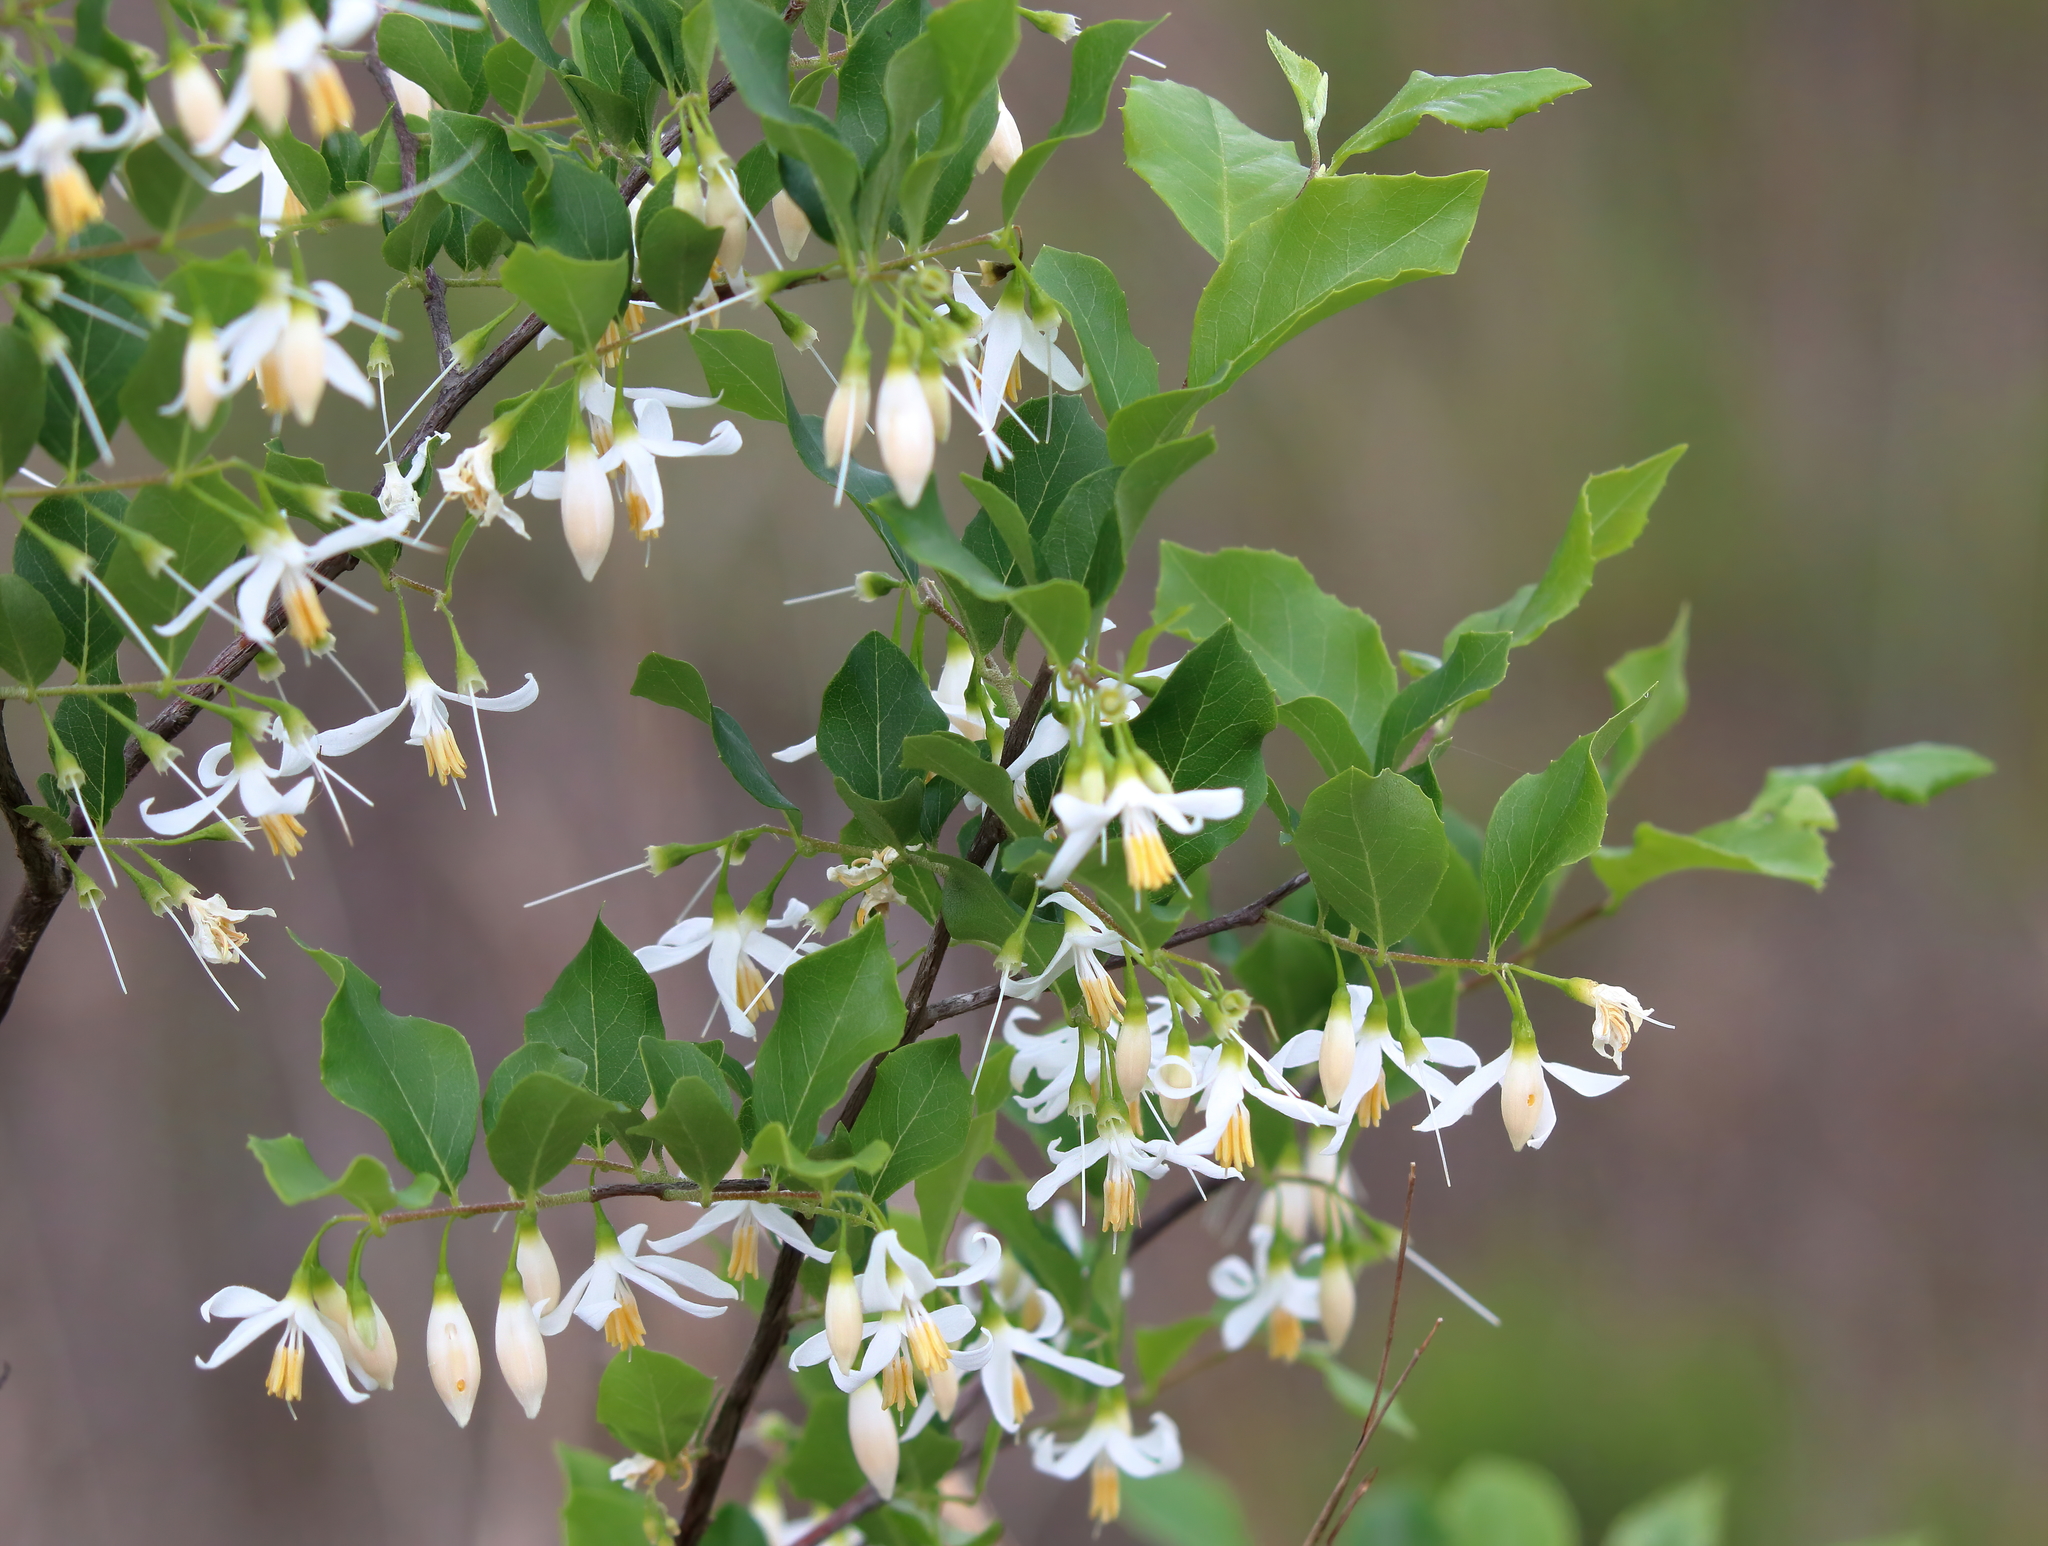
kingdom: Plantae
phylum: Tracheophyta
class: Magnoliopsida
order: Ericales
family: Styracaceae
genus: Styrax
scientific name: Styrax americanus
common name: American snowbell
